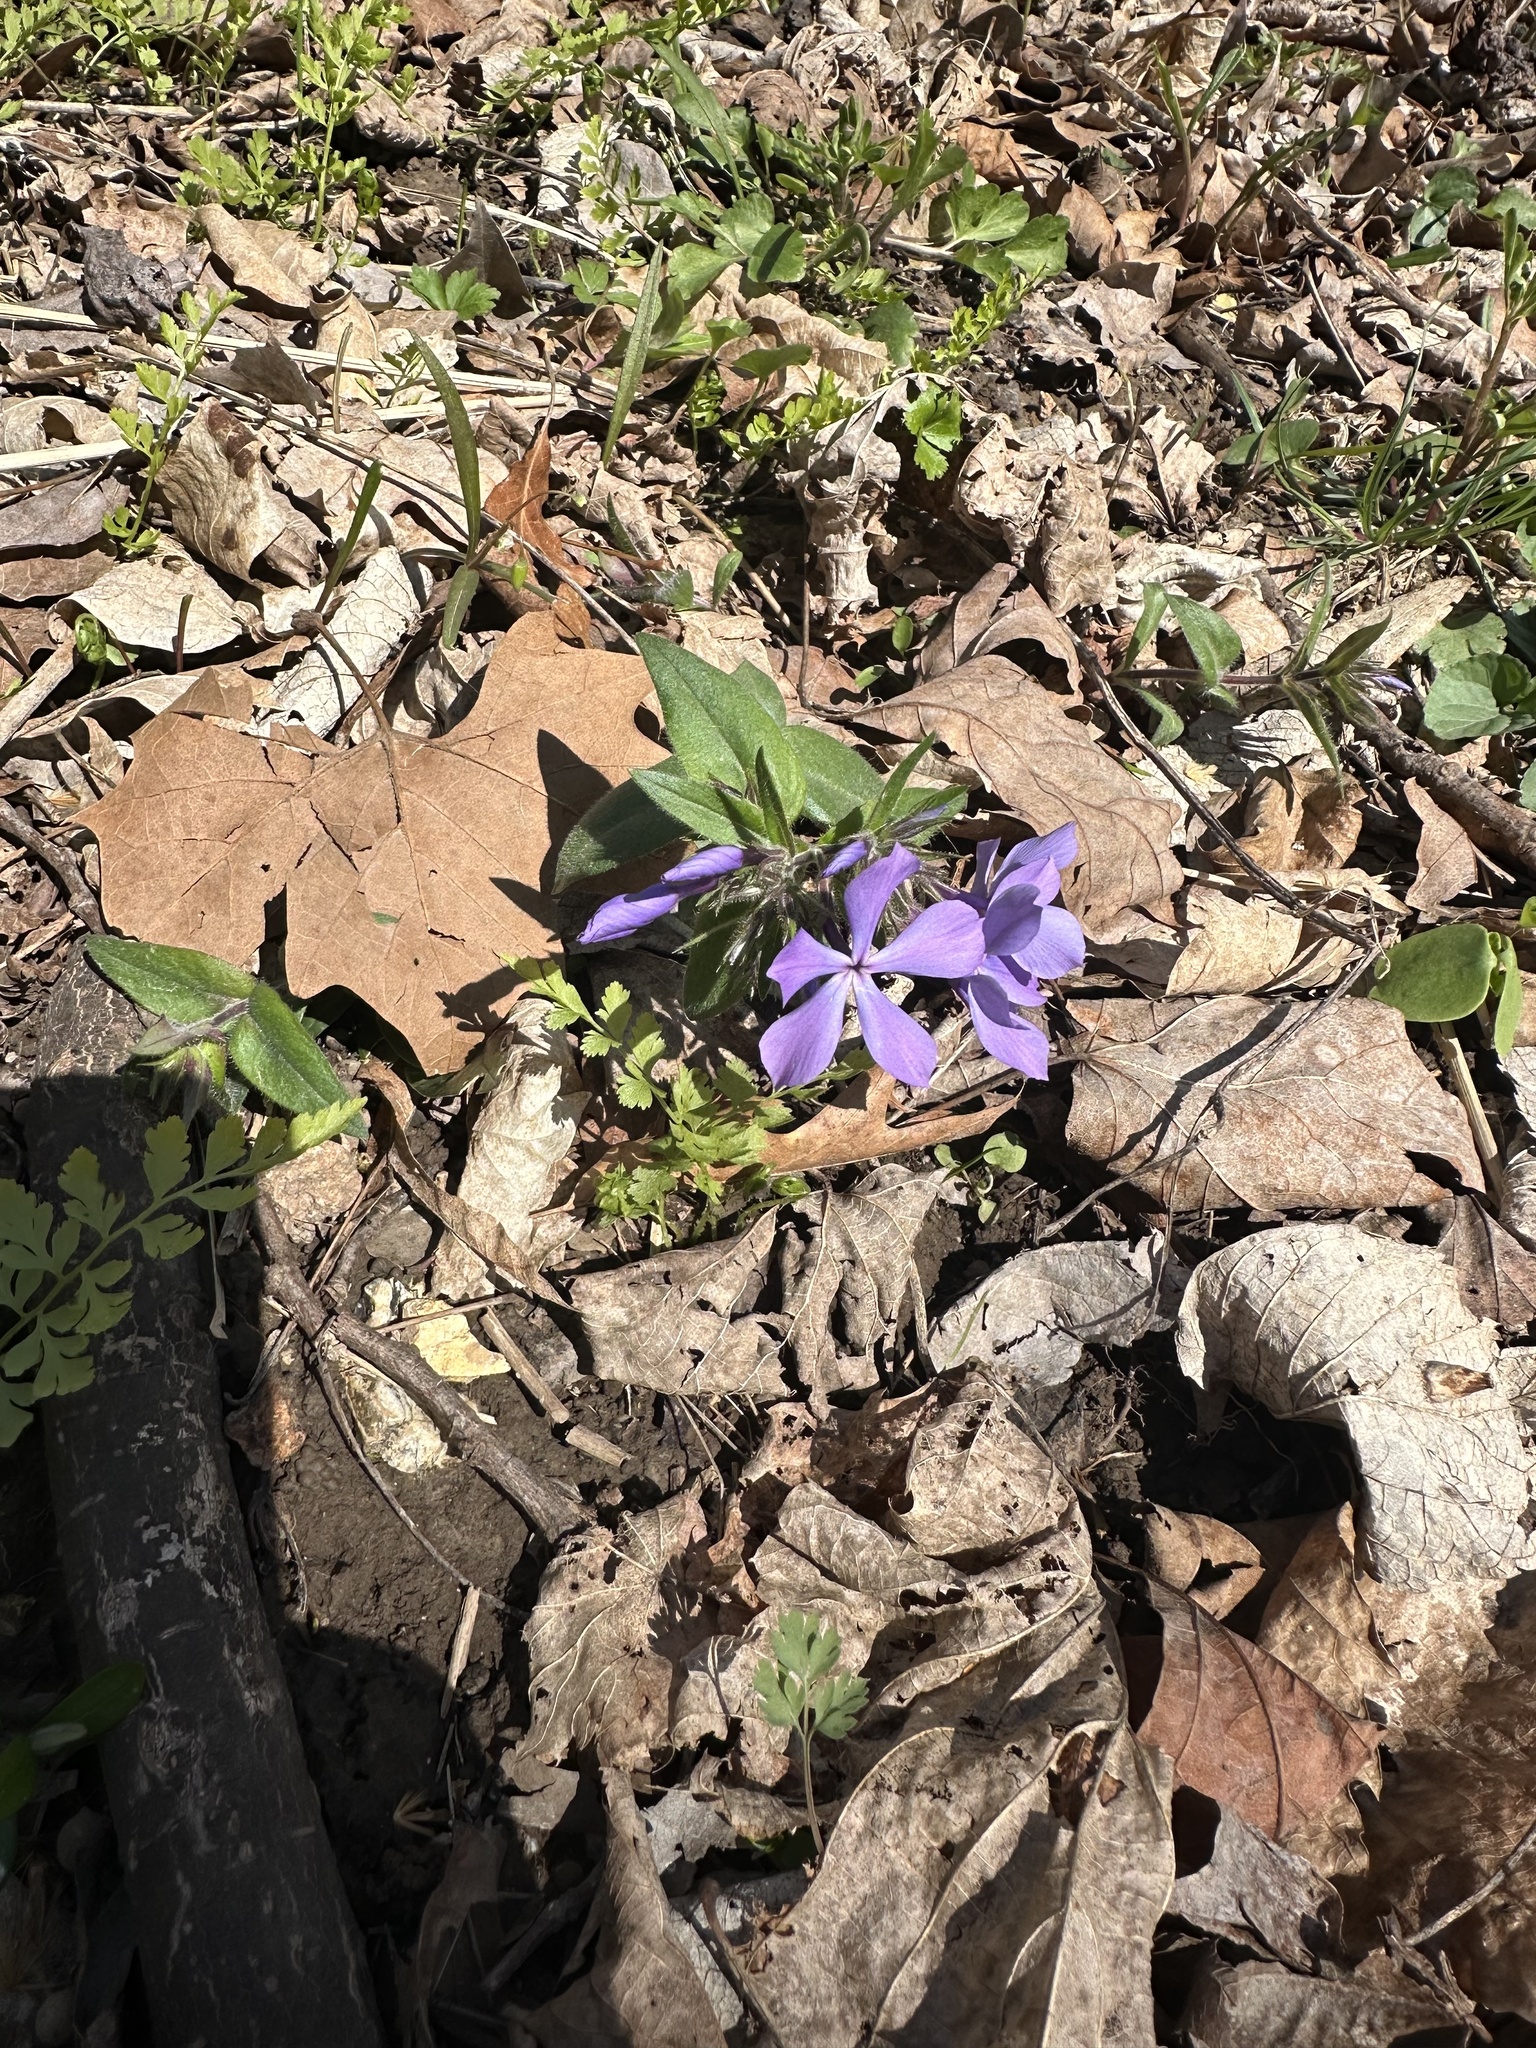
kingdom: Plantae
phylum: Tracheophyta
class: Magnoliopsida
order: Ericales
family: Polemoniaceae
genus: Phlox
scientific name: Phlox divaricata
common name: Blue phlox
